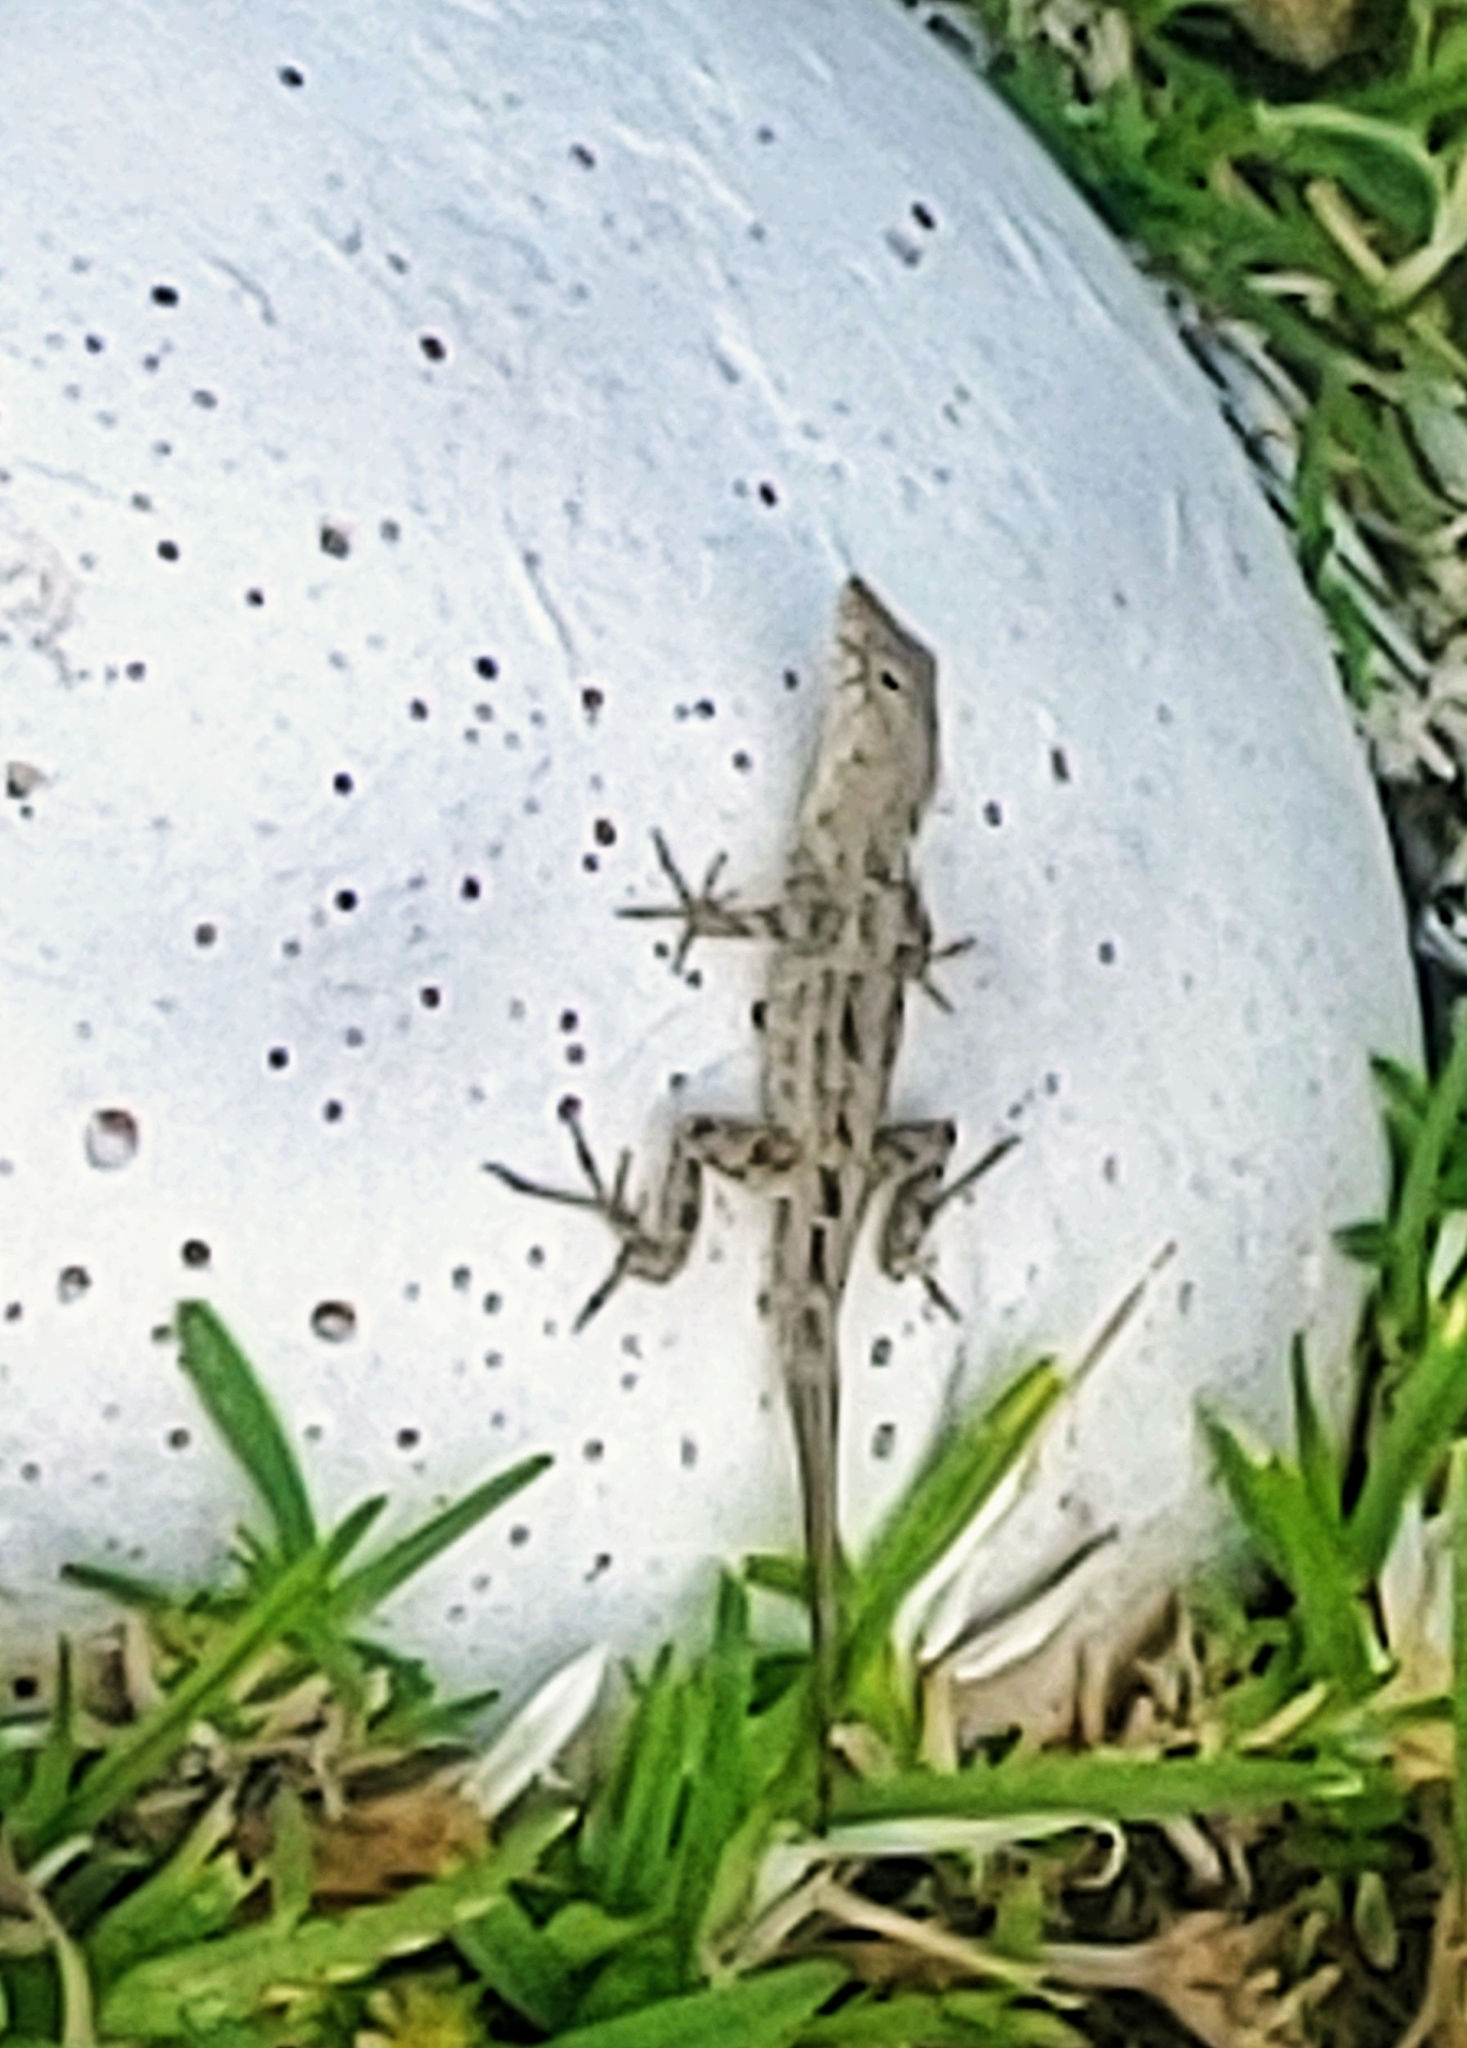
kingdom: Animalia
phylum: Chordata
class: Squamata
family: Dactyloidae
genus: Anolis
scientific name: Anolis sagrei
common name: Brown anole
